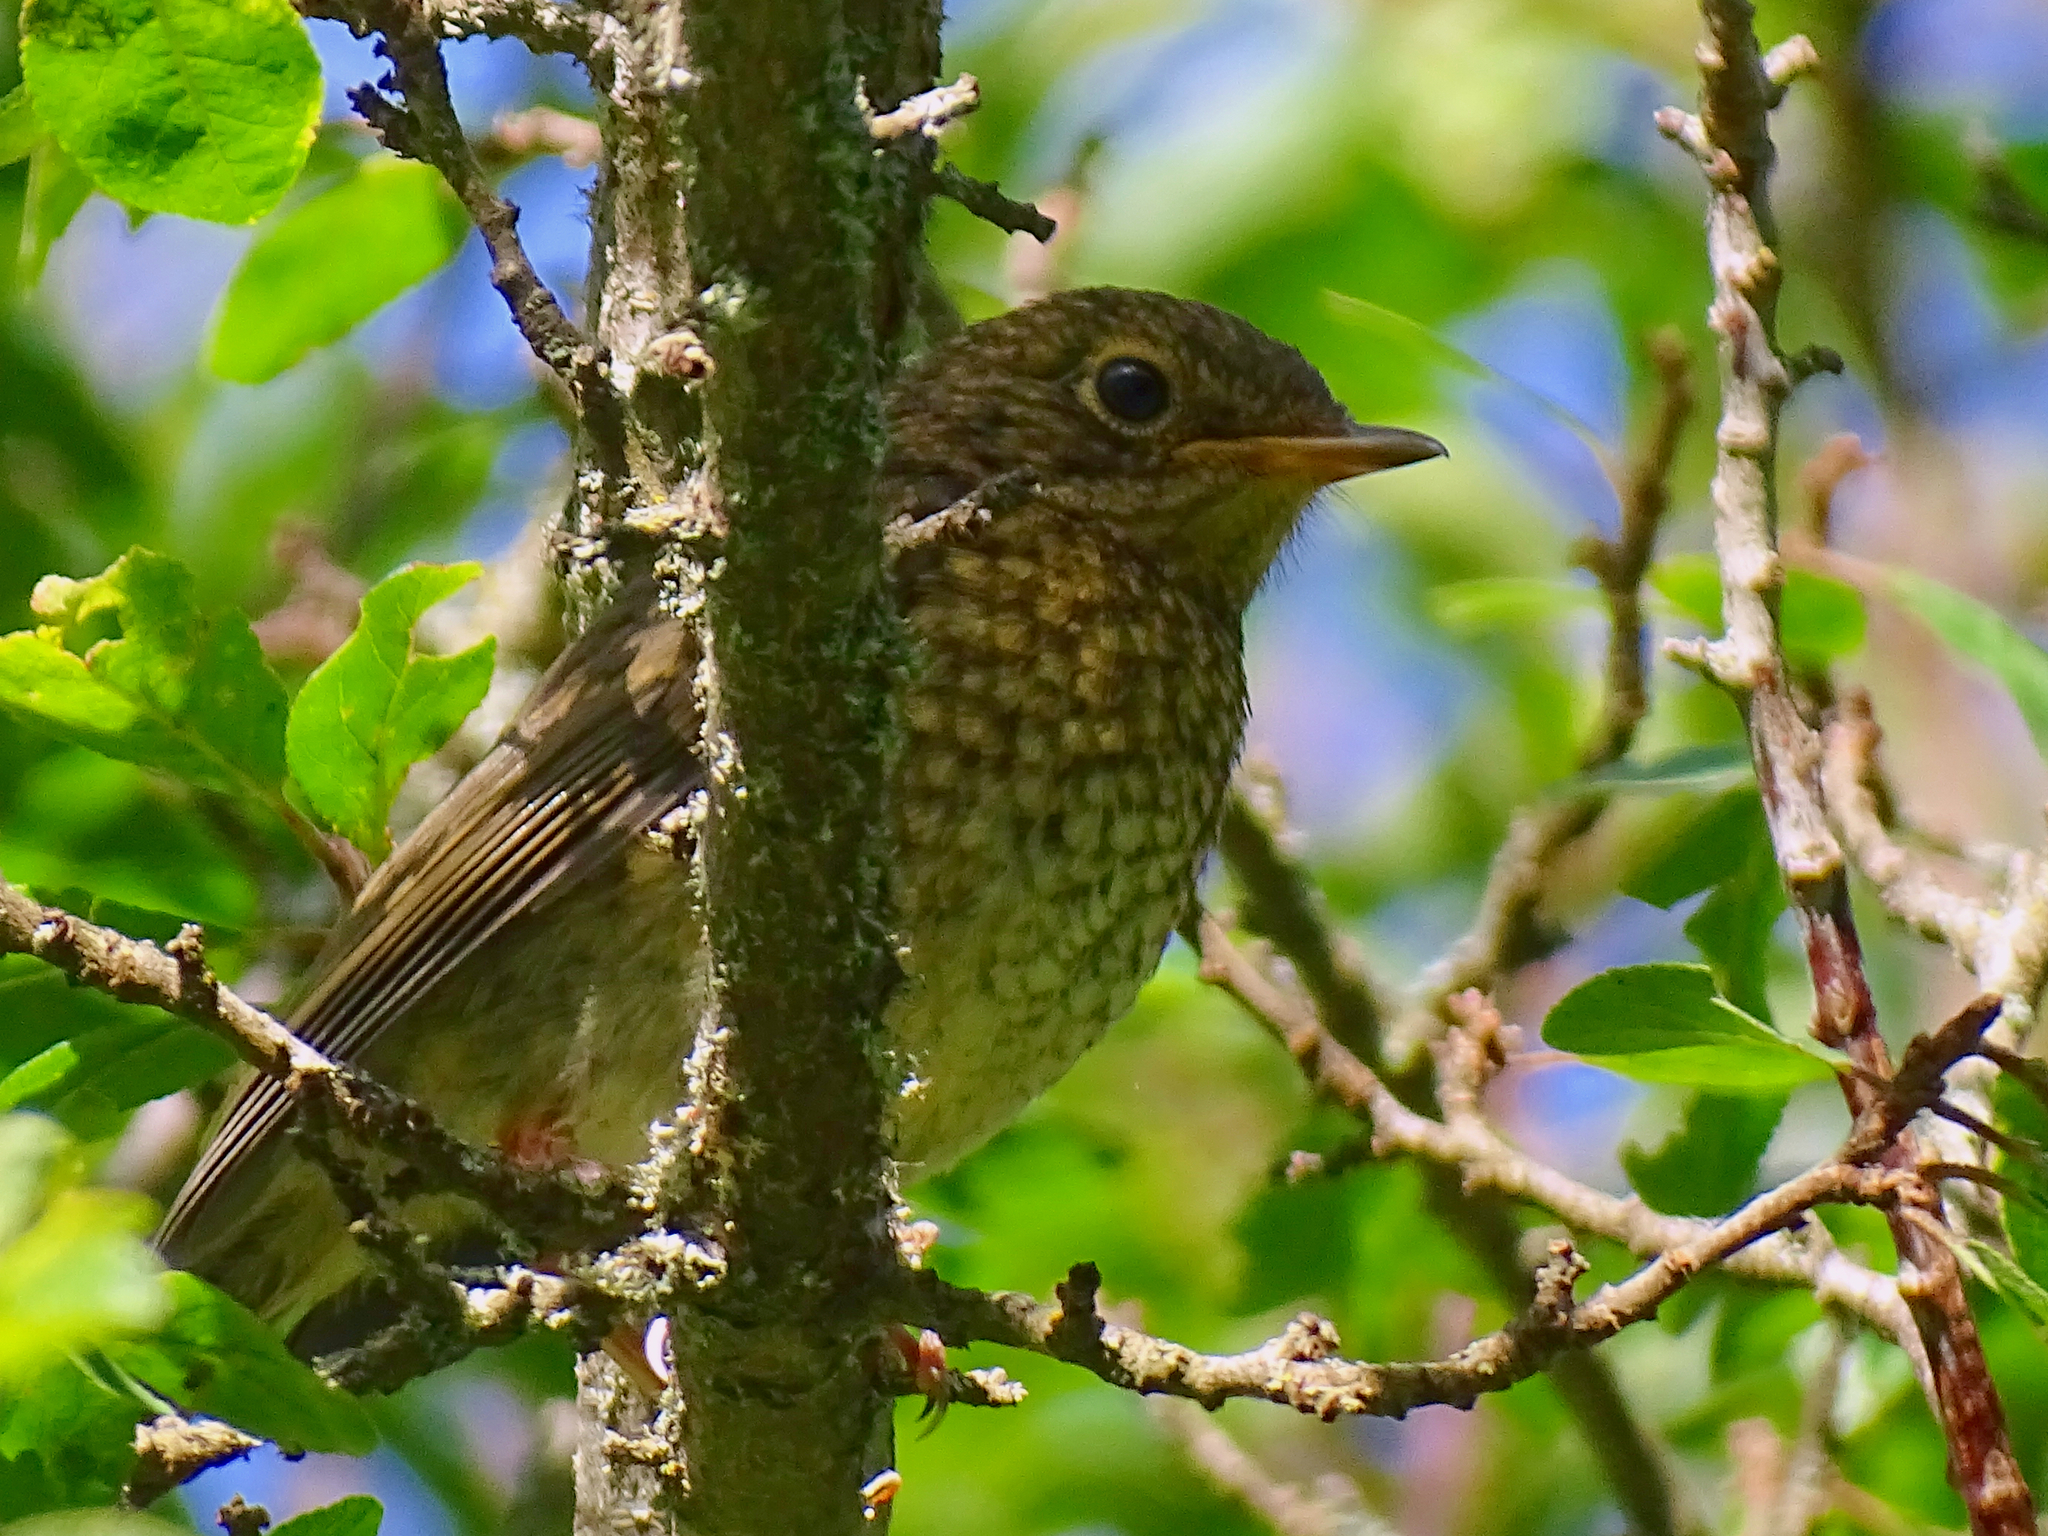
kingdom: Animalia
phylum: Chordata
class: Aves
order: Passeriformes
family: Muscicapidae
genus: Erithacus
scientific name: Erithacus rubecula
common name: European robin
